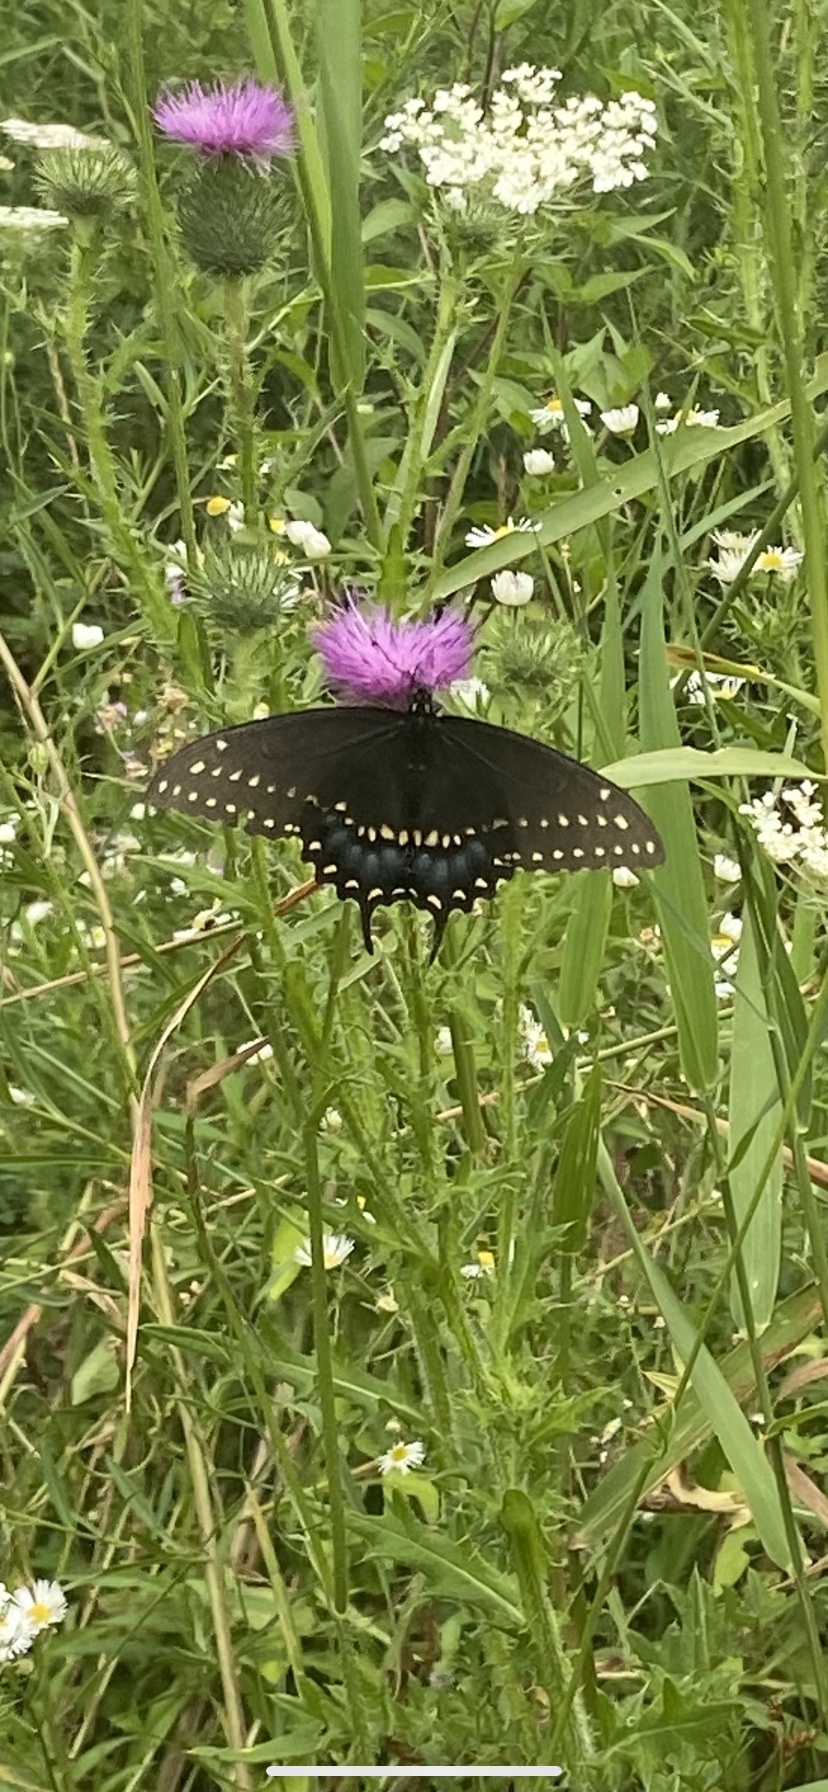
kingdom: Animalia
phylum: Arthropoda
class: Insecta
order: Lepidoptera
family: Papilionidae
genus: Papilio
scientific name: Papilio polyxenes
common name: Black swallowtail
